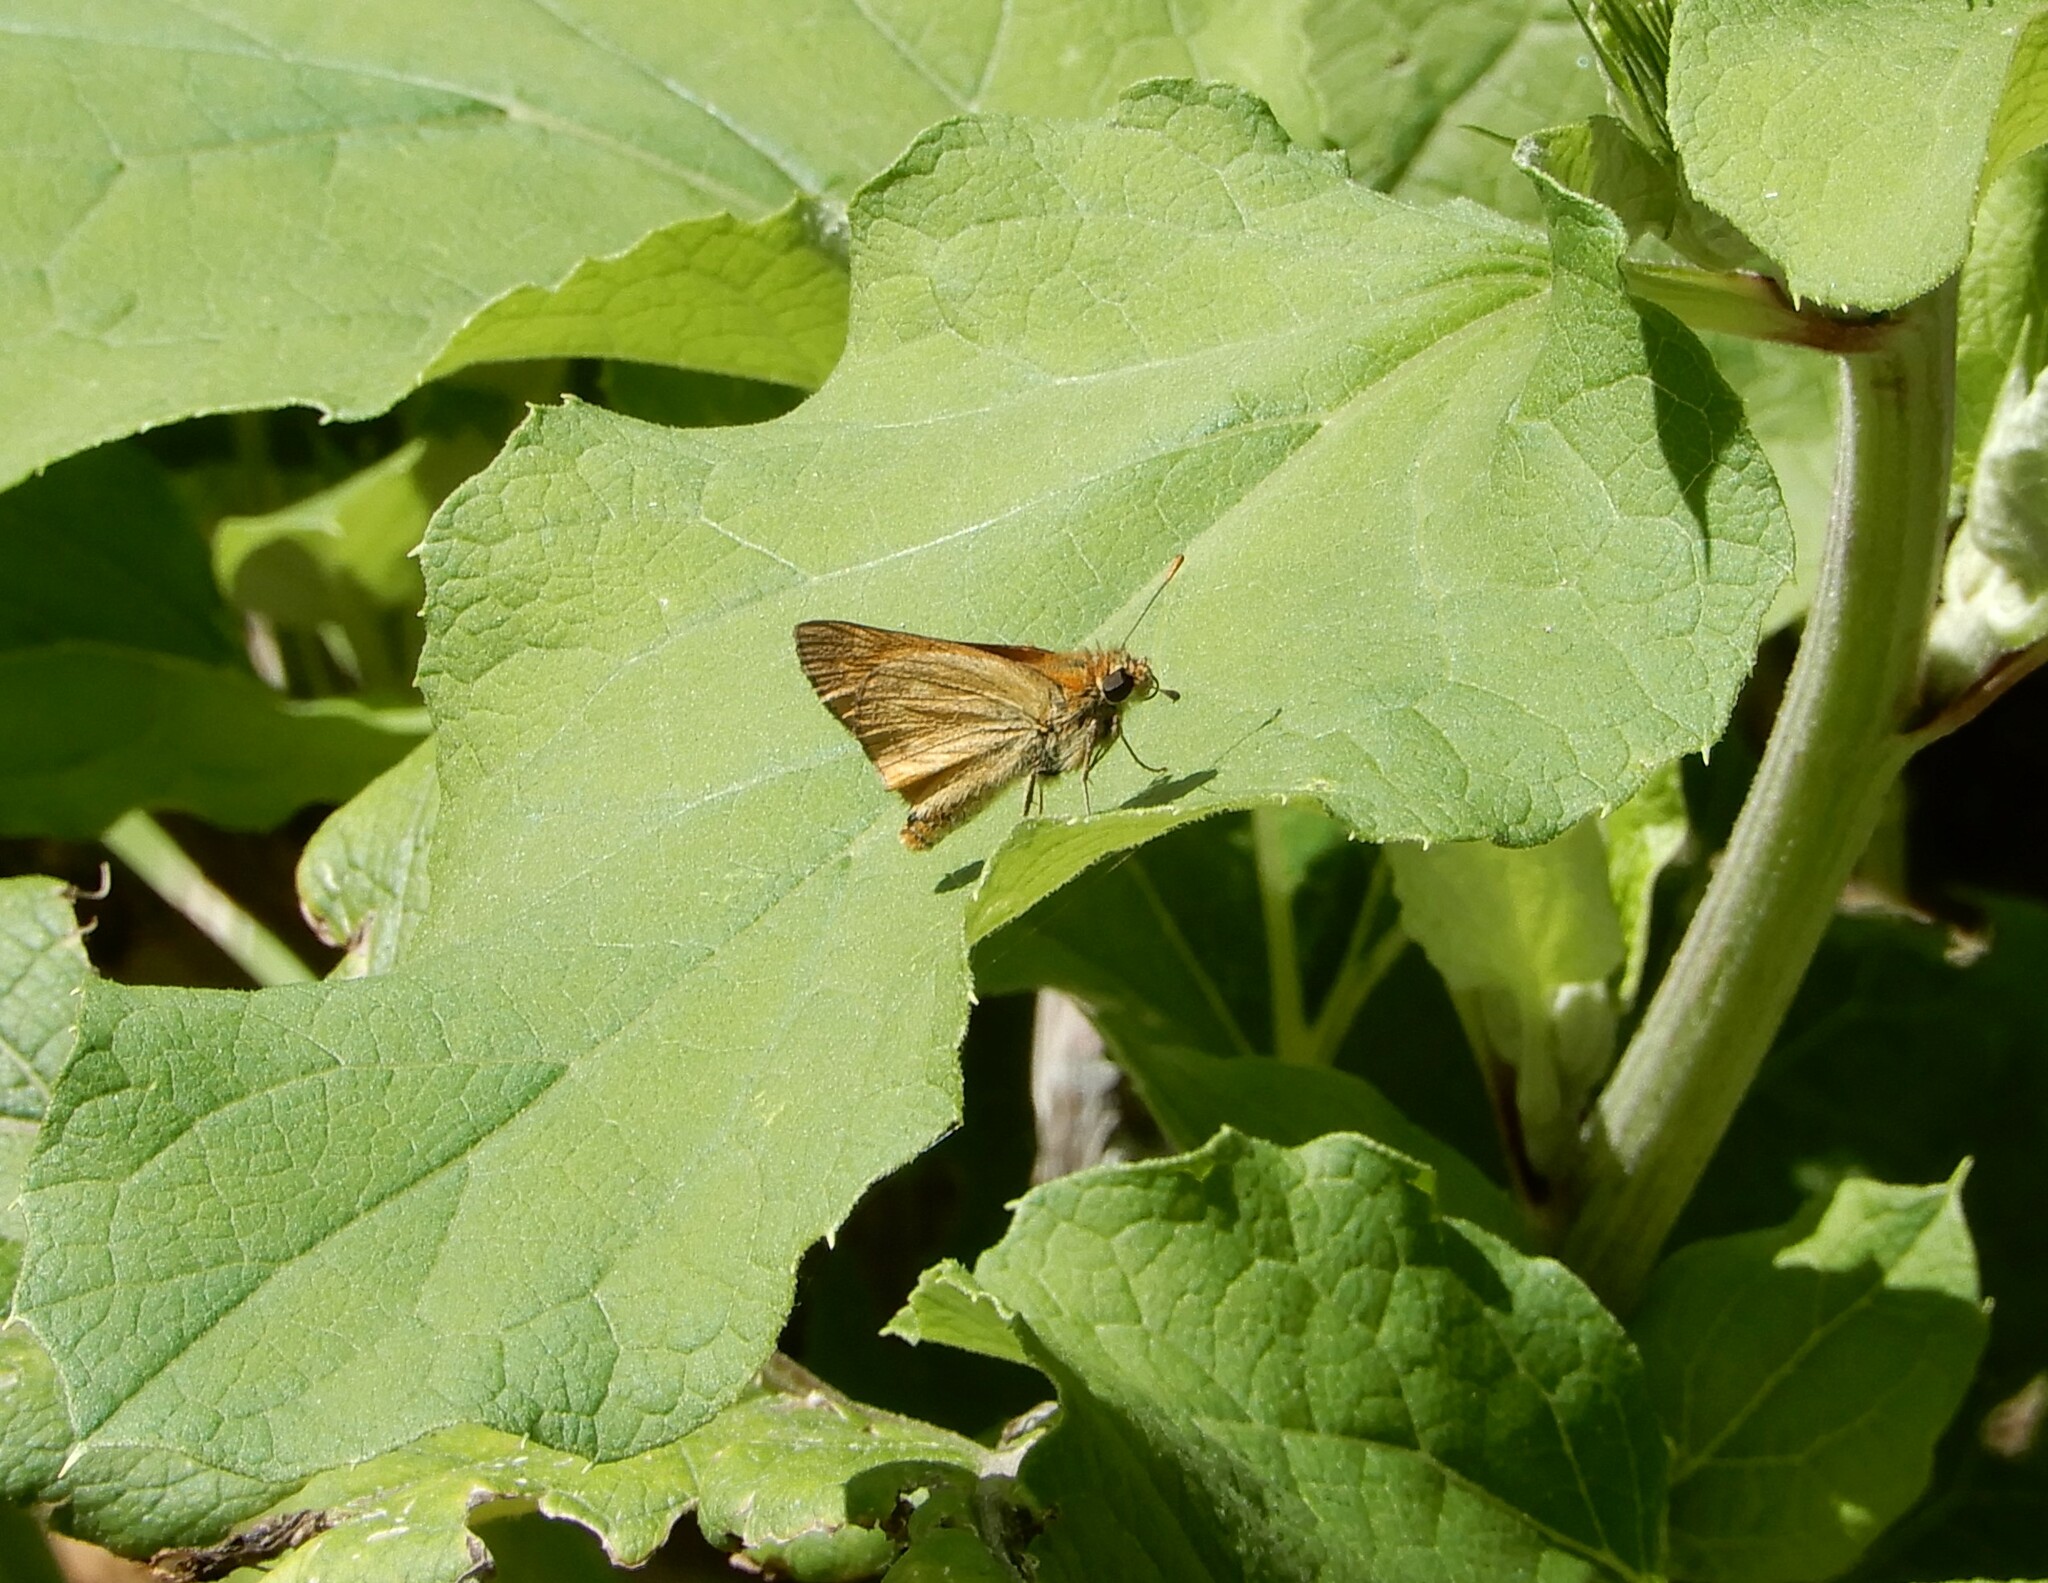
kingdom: Animalia
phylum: Arthropoda
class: Insecta
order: Lepidoptera
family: Hesperiidae
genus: Ochlodes
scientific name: Ochlodes venata
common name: Large skipper
